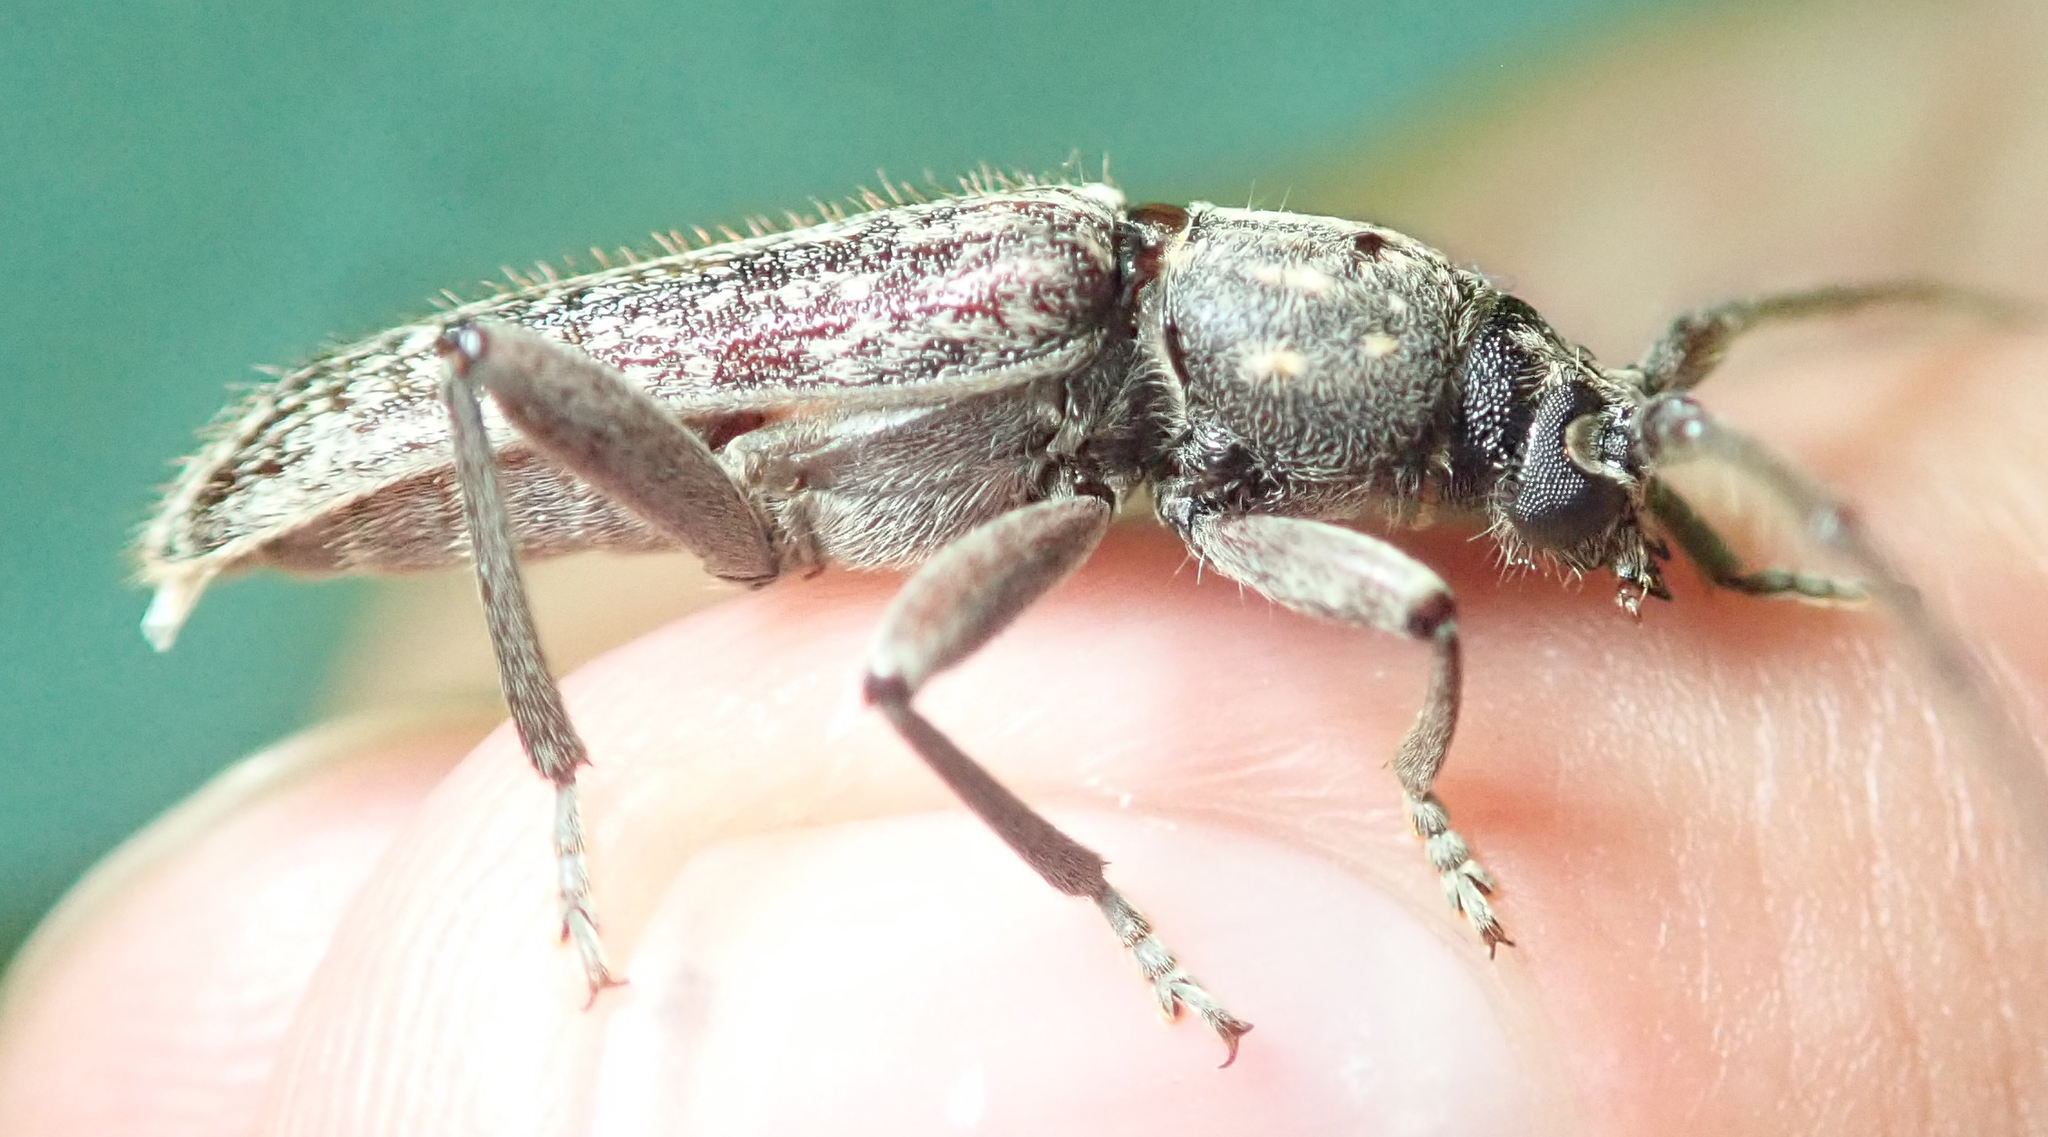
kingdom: Animalia
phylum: Arthropoda
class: Insecta
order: Coleoptera
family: Cerambycidae
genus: Zoodes
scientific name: Zoodes liturifer
